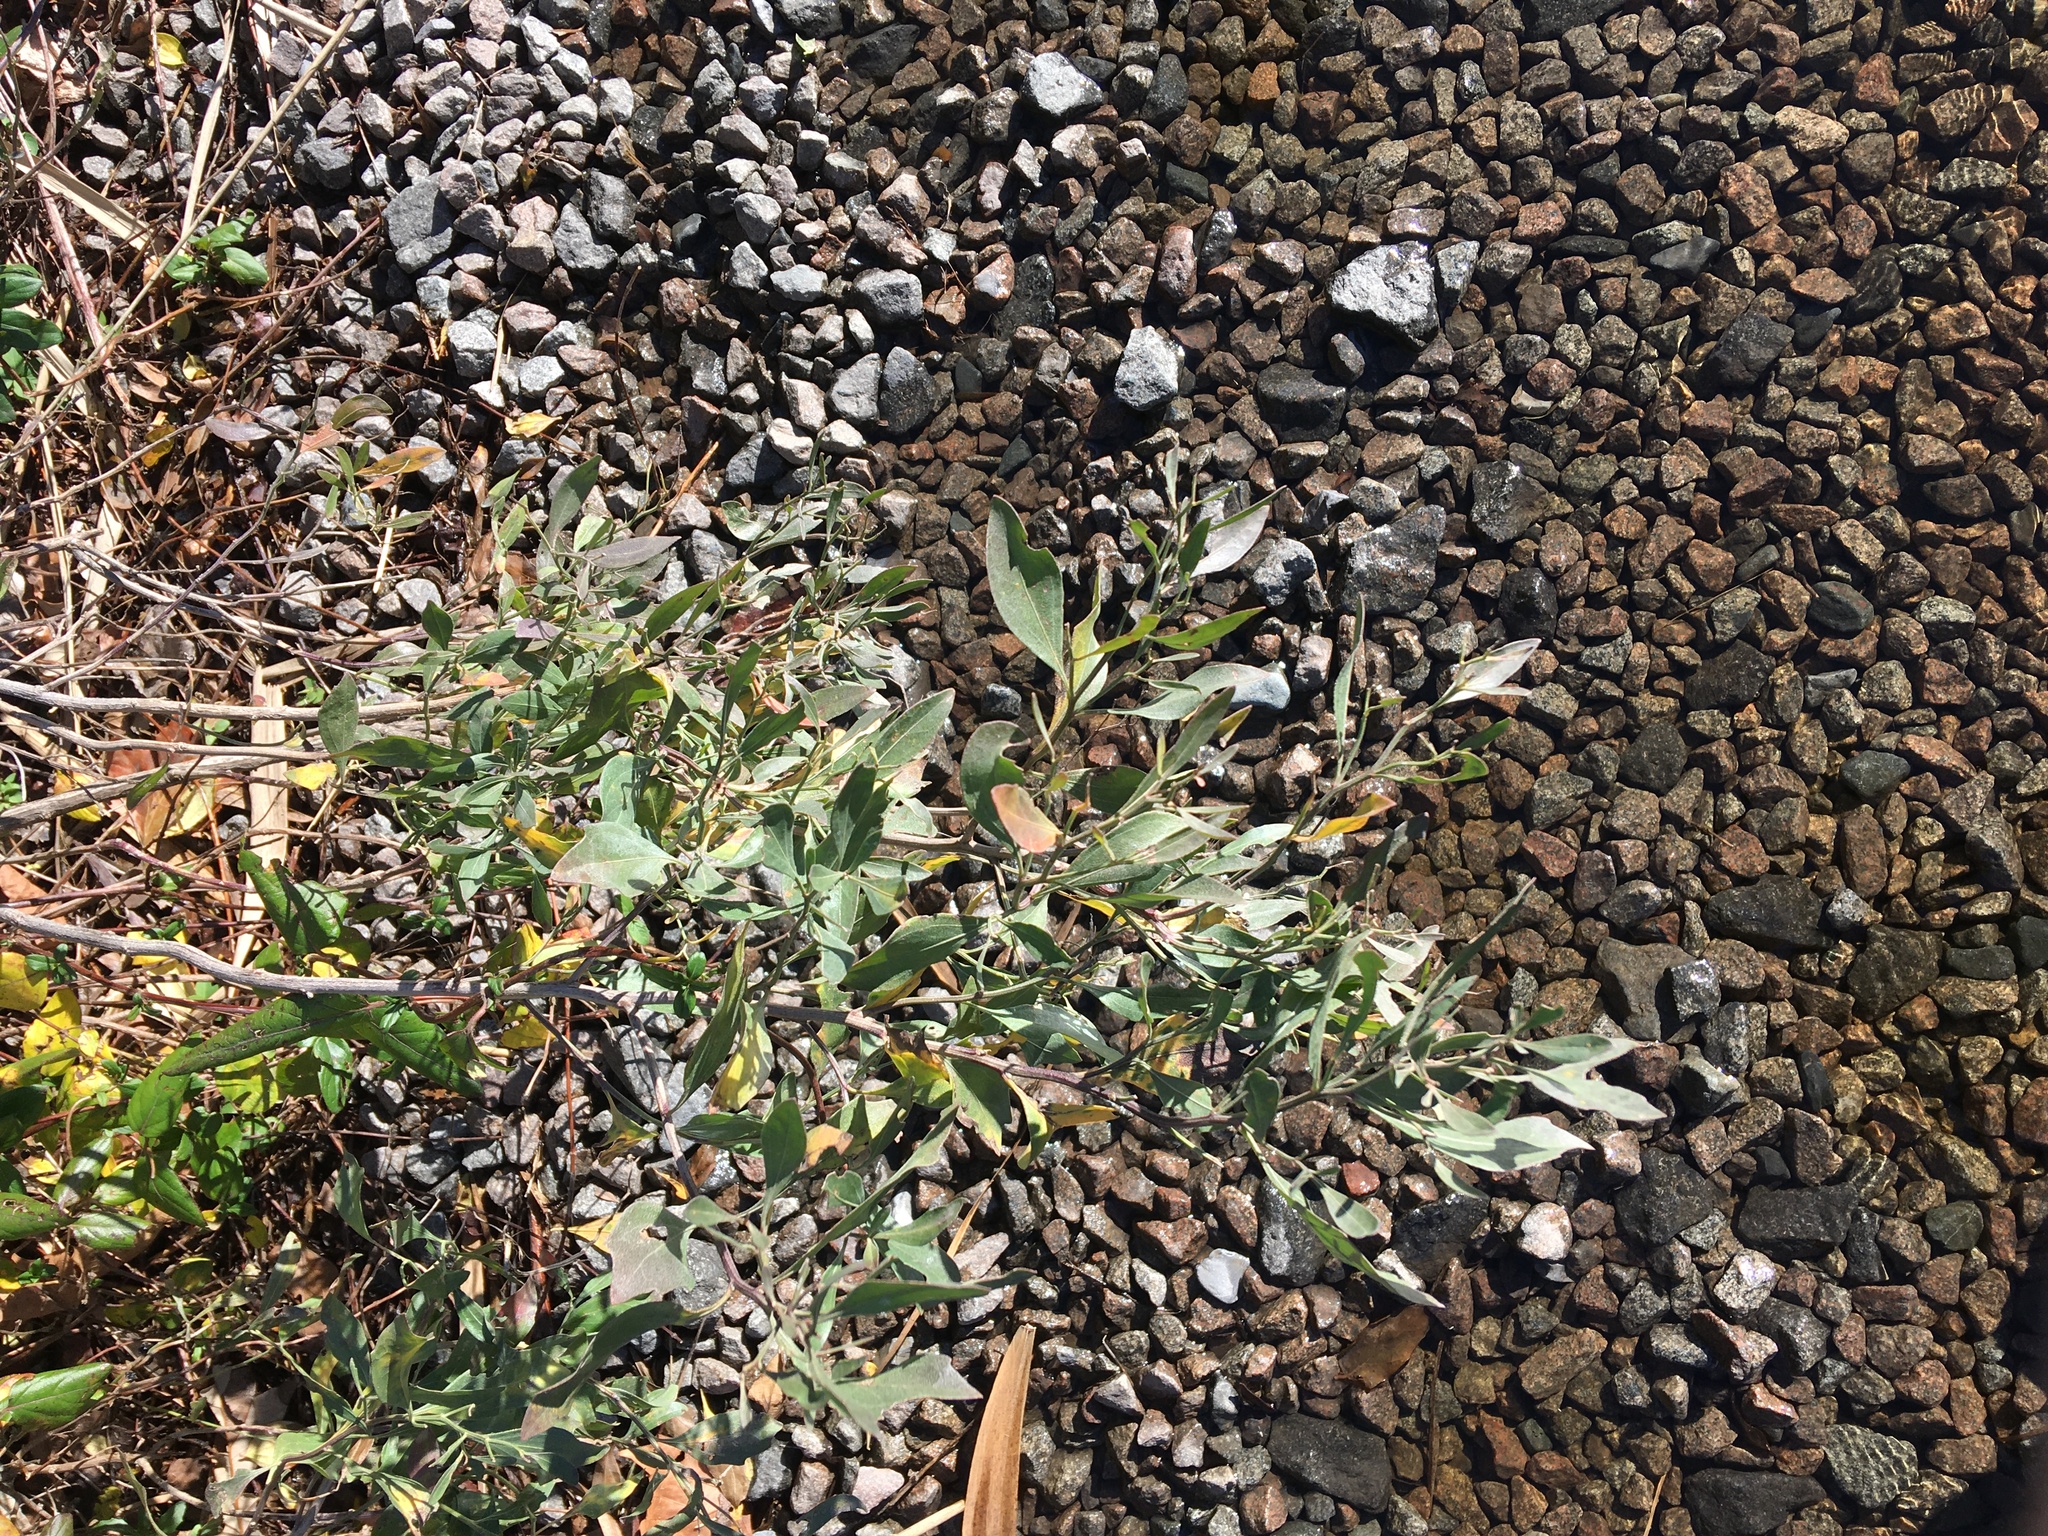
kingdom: Plantae
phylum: Tracheophyta
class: Magnoliopsida
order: Asterales
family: Asteraceae
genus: Baccharis
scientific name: Baccharis halimifolia
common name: Eastern baccharis
